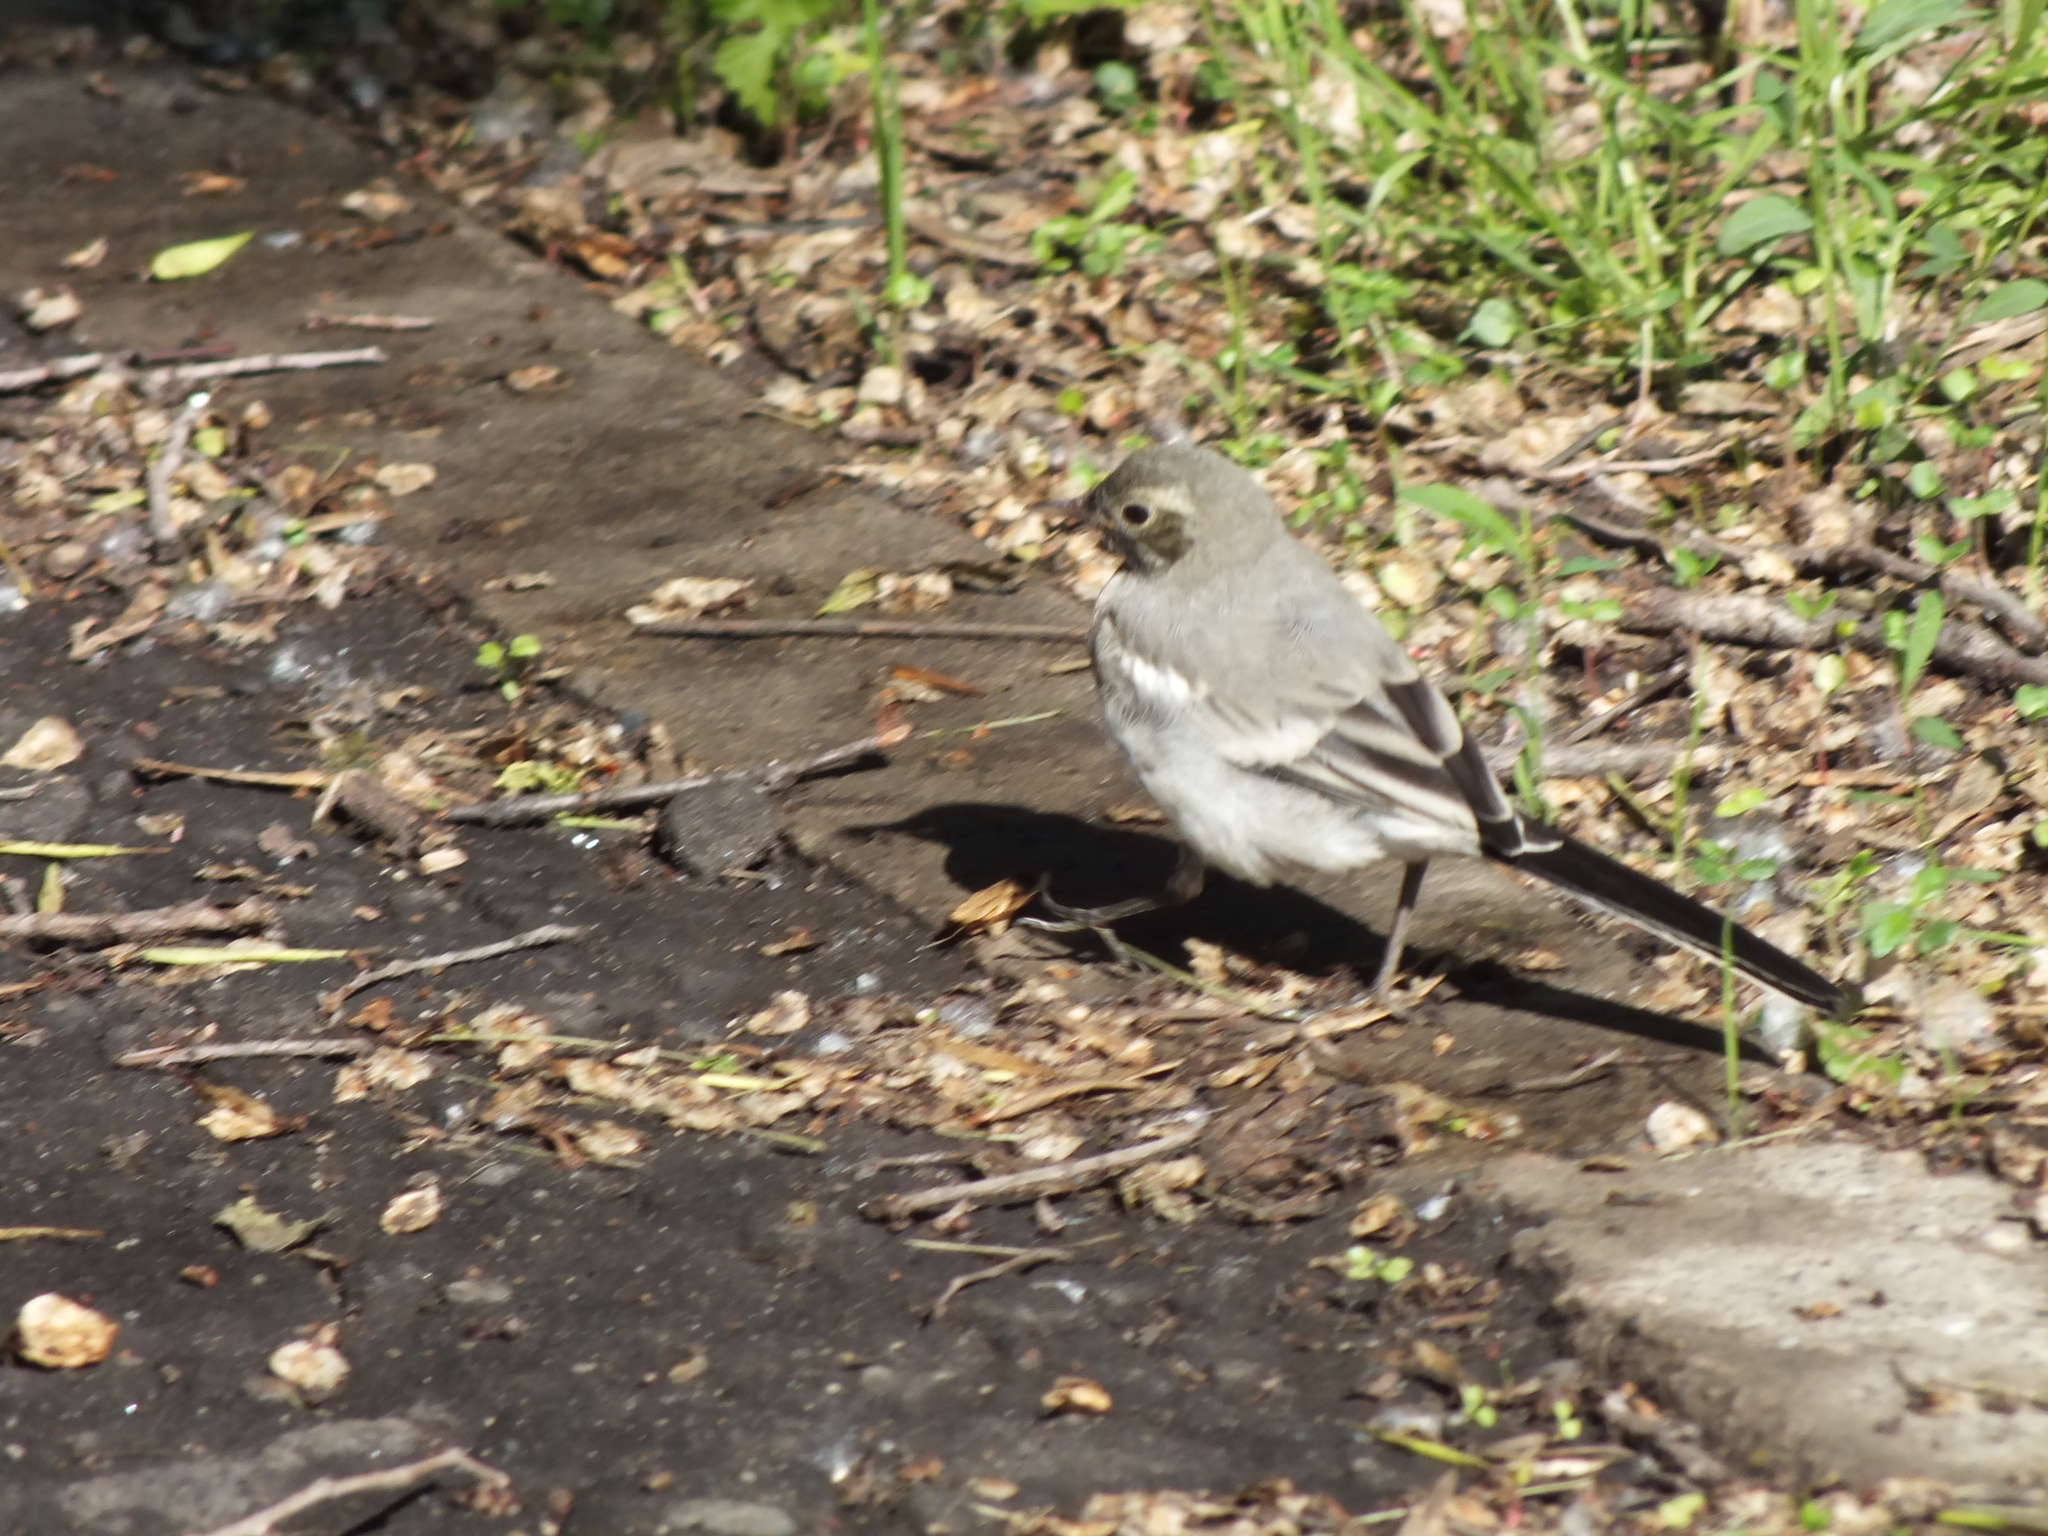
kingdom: Animalia
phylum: Chordata
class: Aves
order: Passeriformes
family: Motacillidae
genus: Motacilla
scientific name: Motacilla alba
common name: White wagtail
